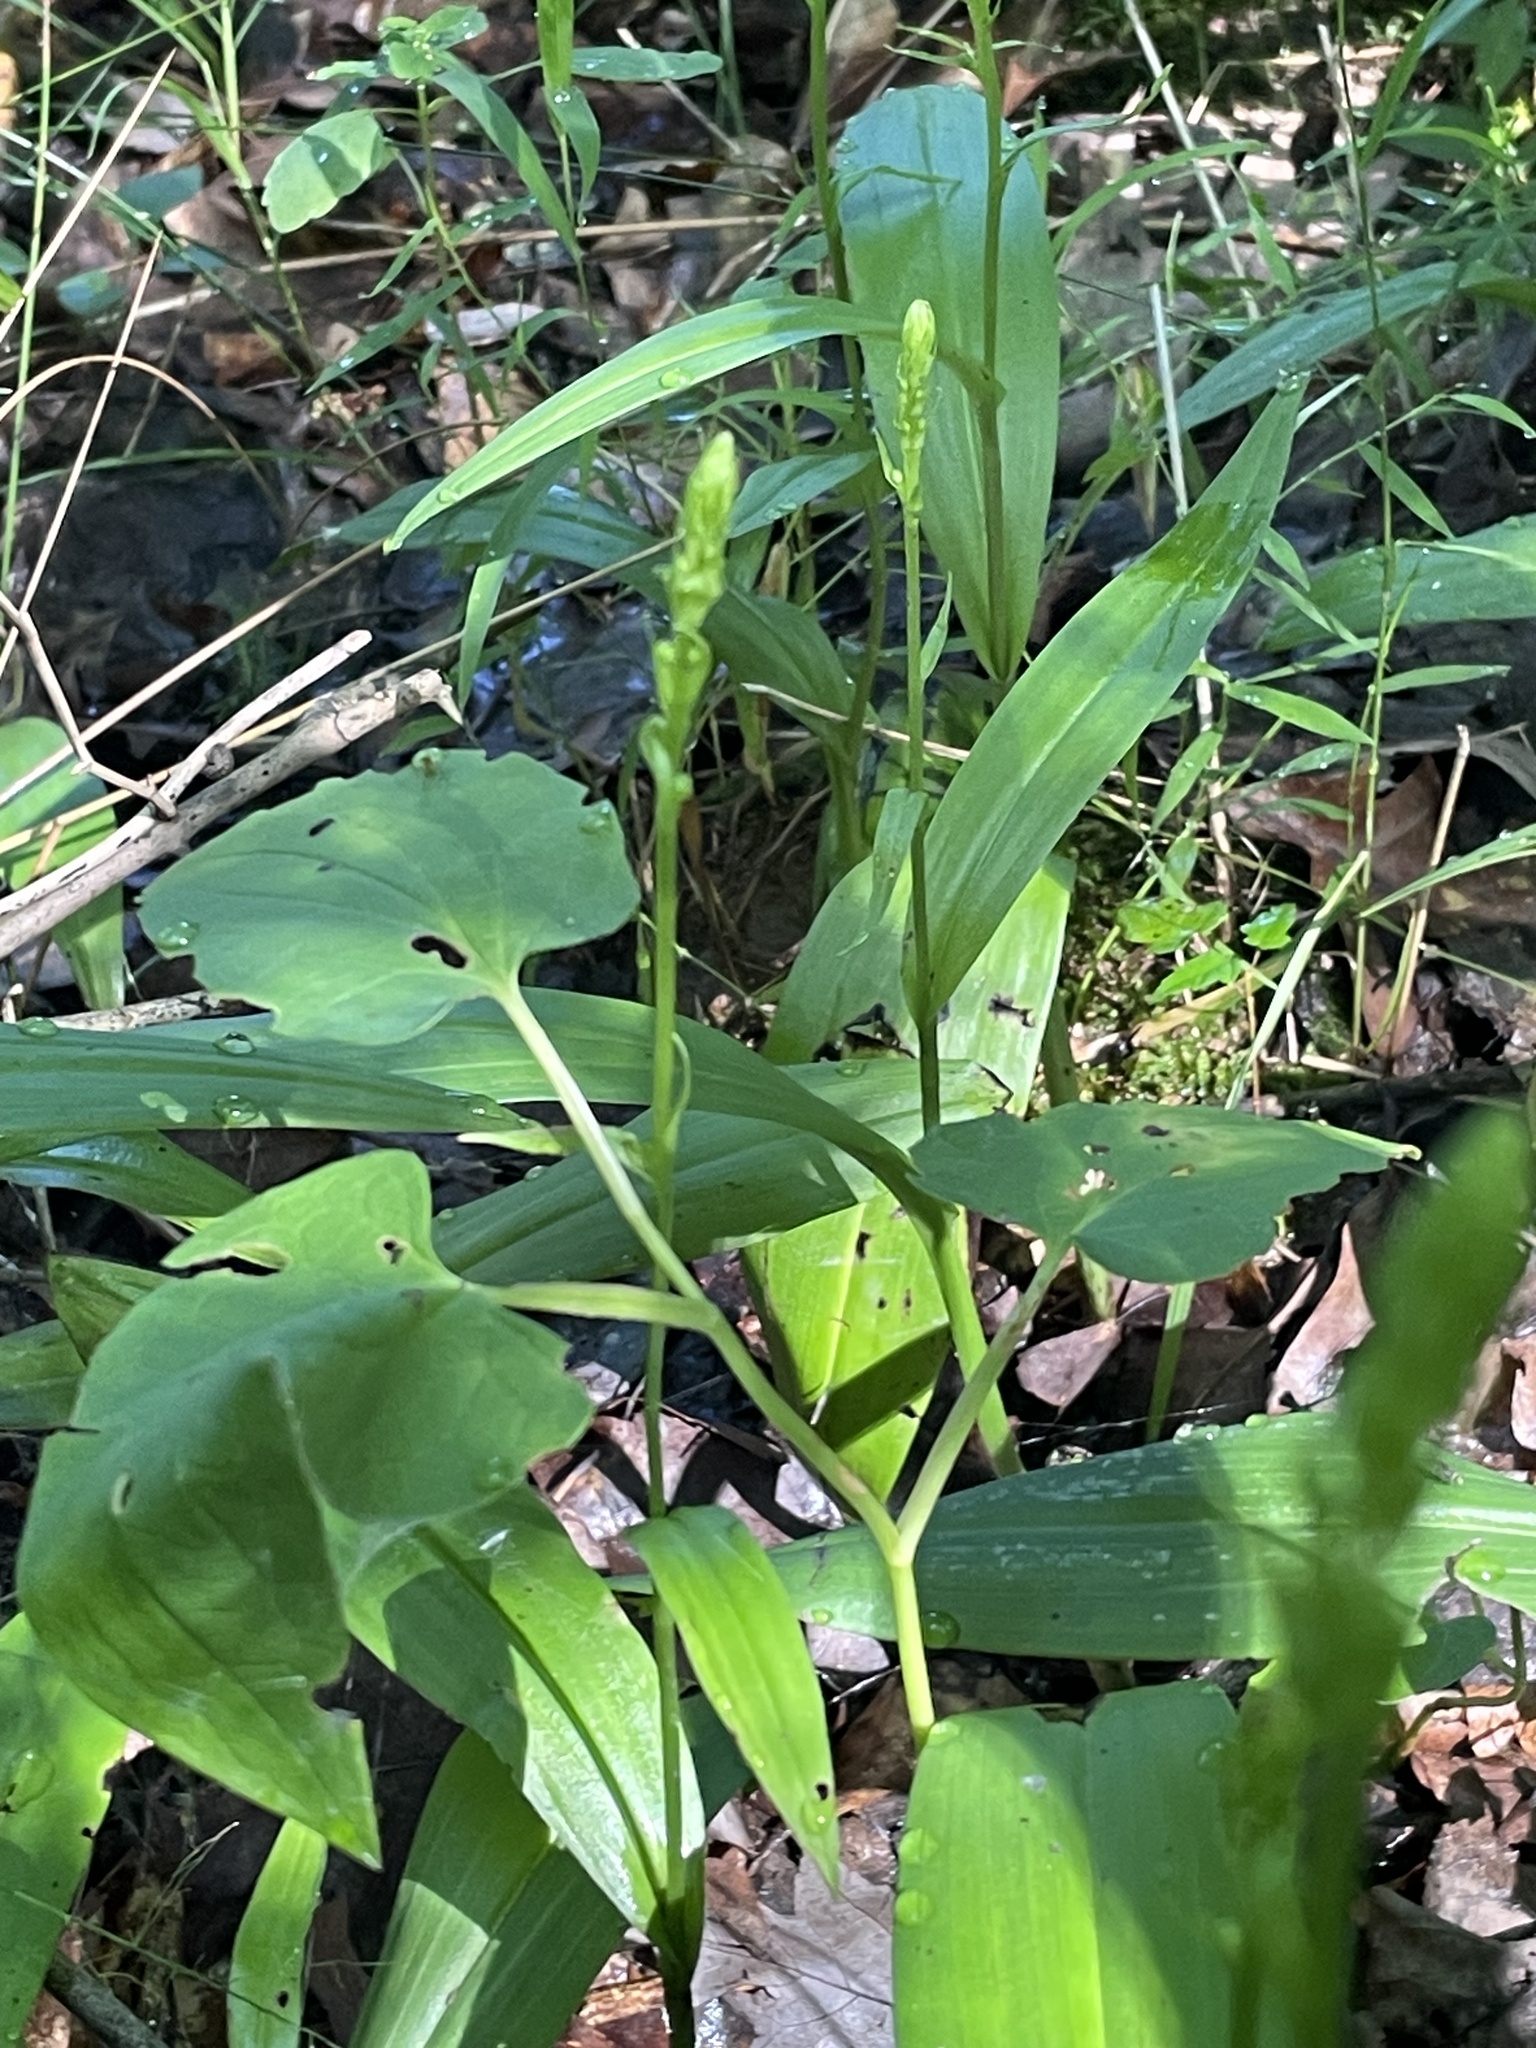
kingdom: Plantae
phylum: Tracheophyta
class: Liliopsida
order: Asparagales
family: Orchidaceae
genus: Platanthera
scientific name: Platanthera flava
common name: Gypsy-spikes
